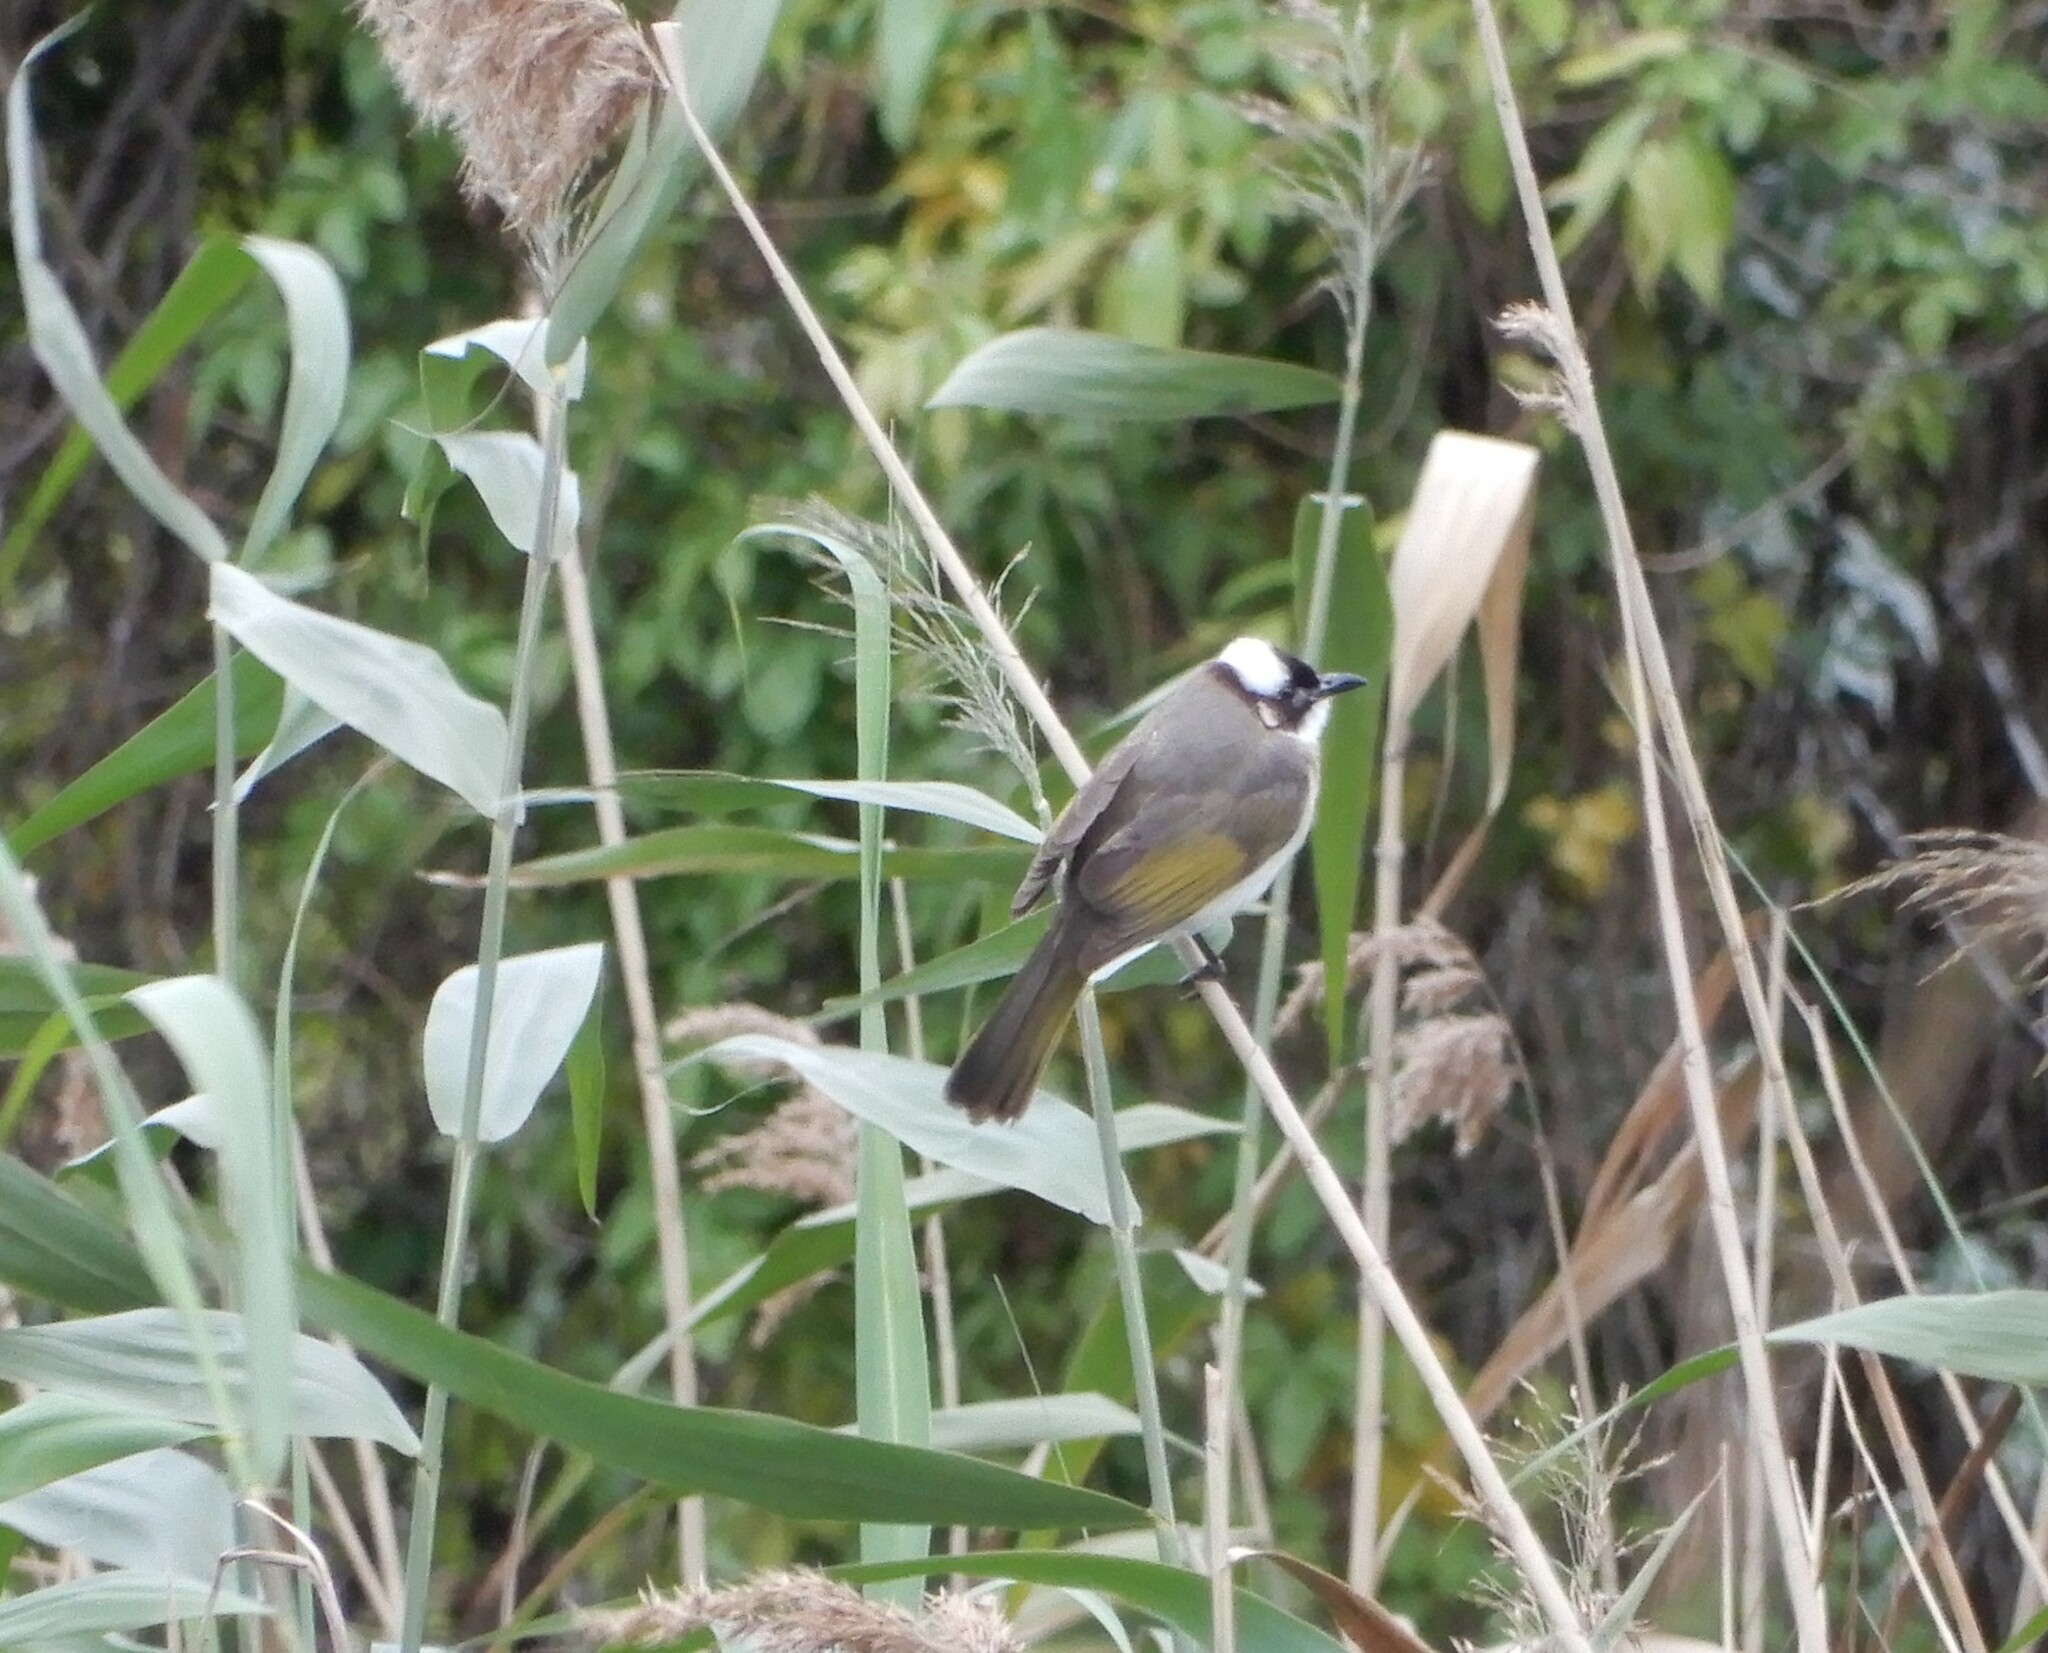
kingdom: Animalia
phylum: Chordata
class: Aves
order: Passeriformes
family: Pycnonotidae
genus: Pycnonotus
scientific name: Pycnonotus sinensis
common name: Light-vented bulbul
